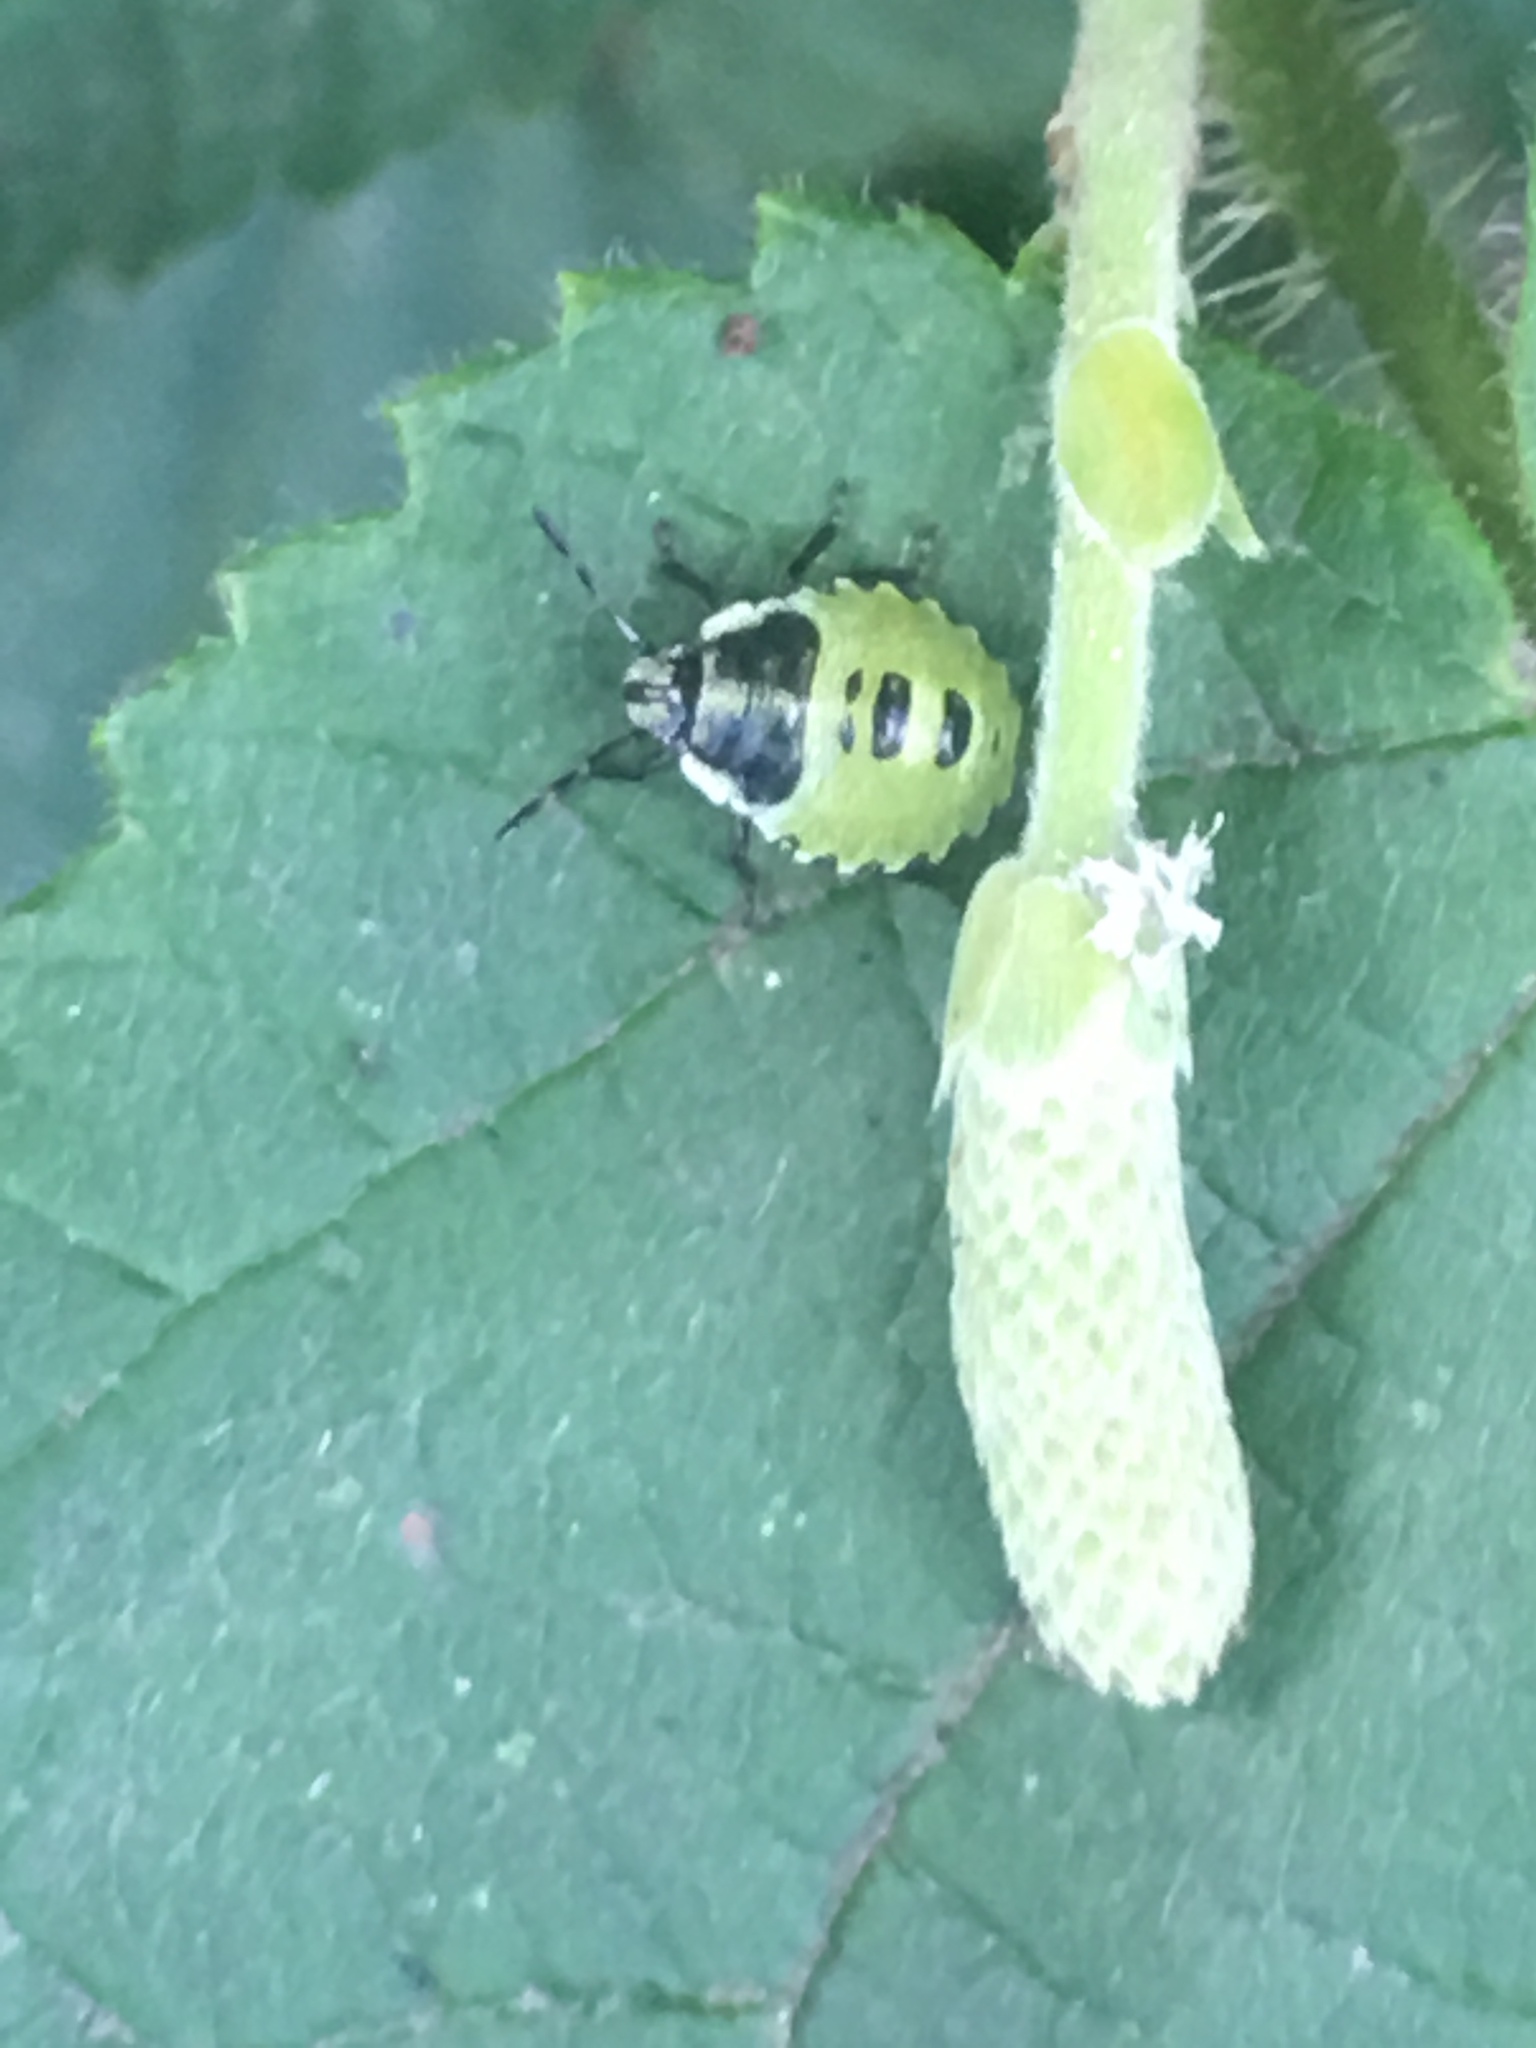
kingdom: Animalia
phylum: Arthropoda
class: Insecta
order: Hemiptera
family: Pentatomidae
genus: Palomena
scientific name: Palomena prasina
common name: Green shieldbug
